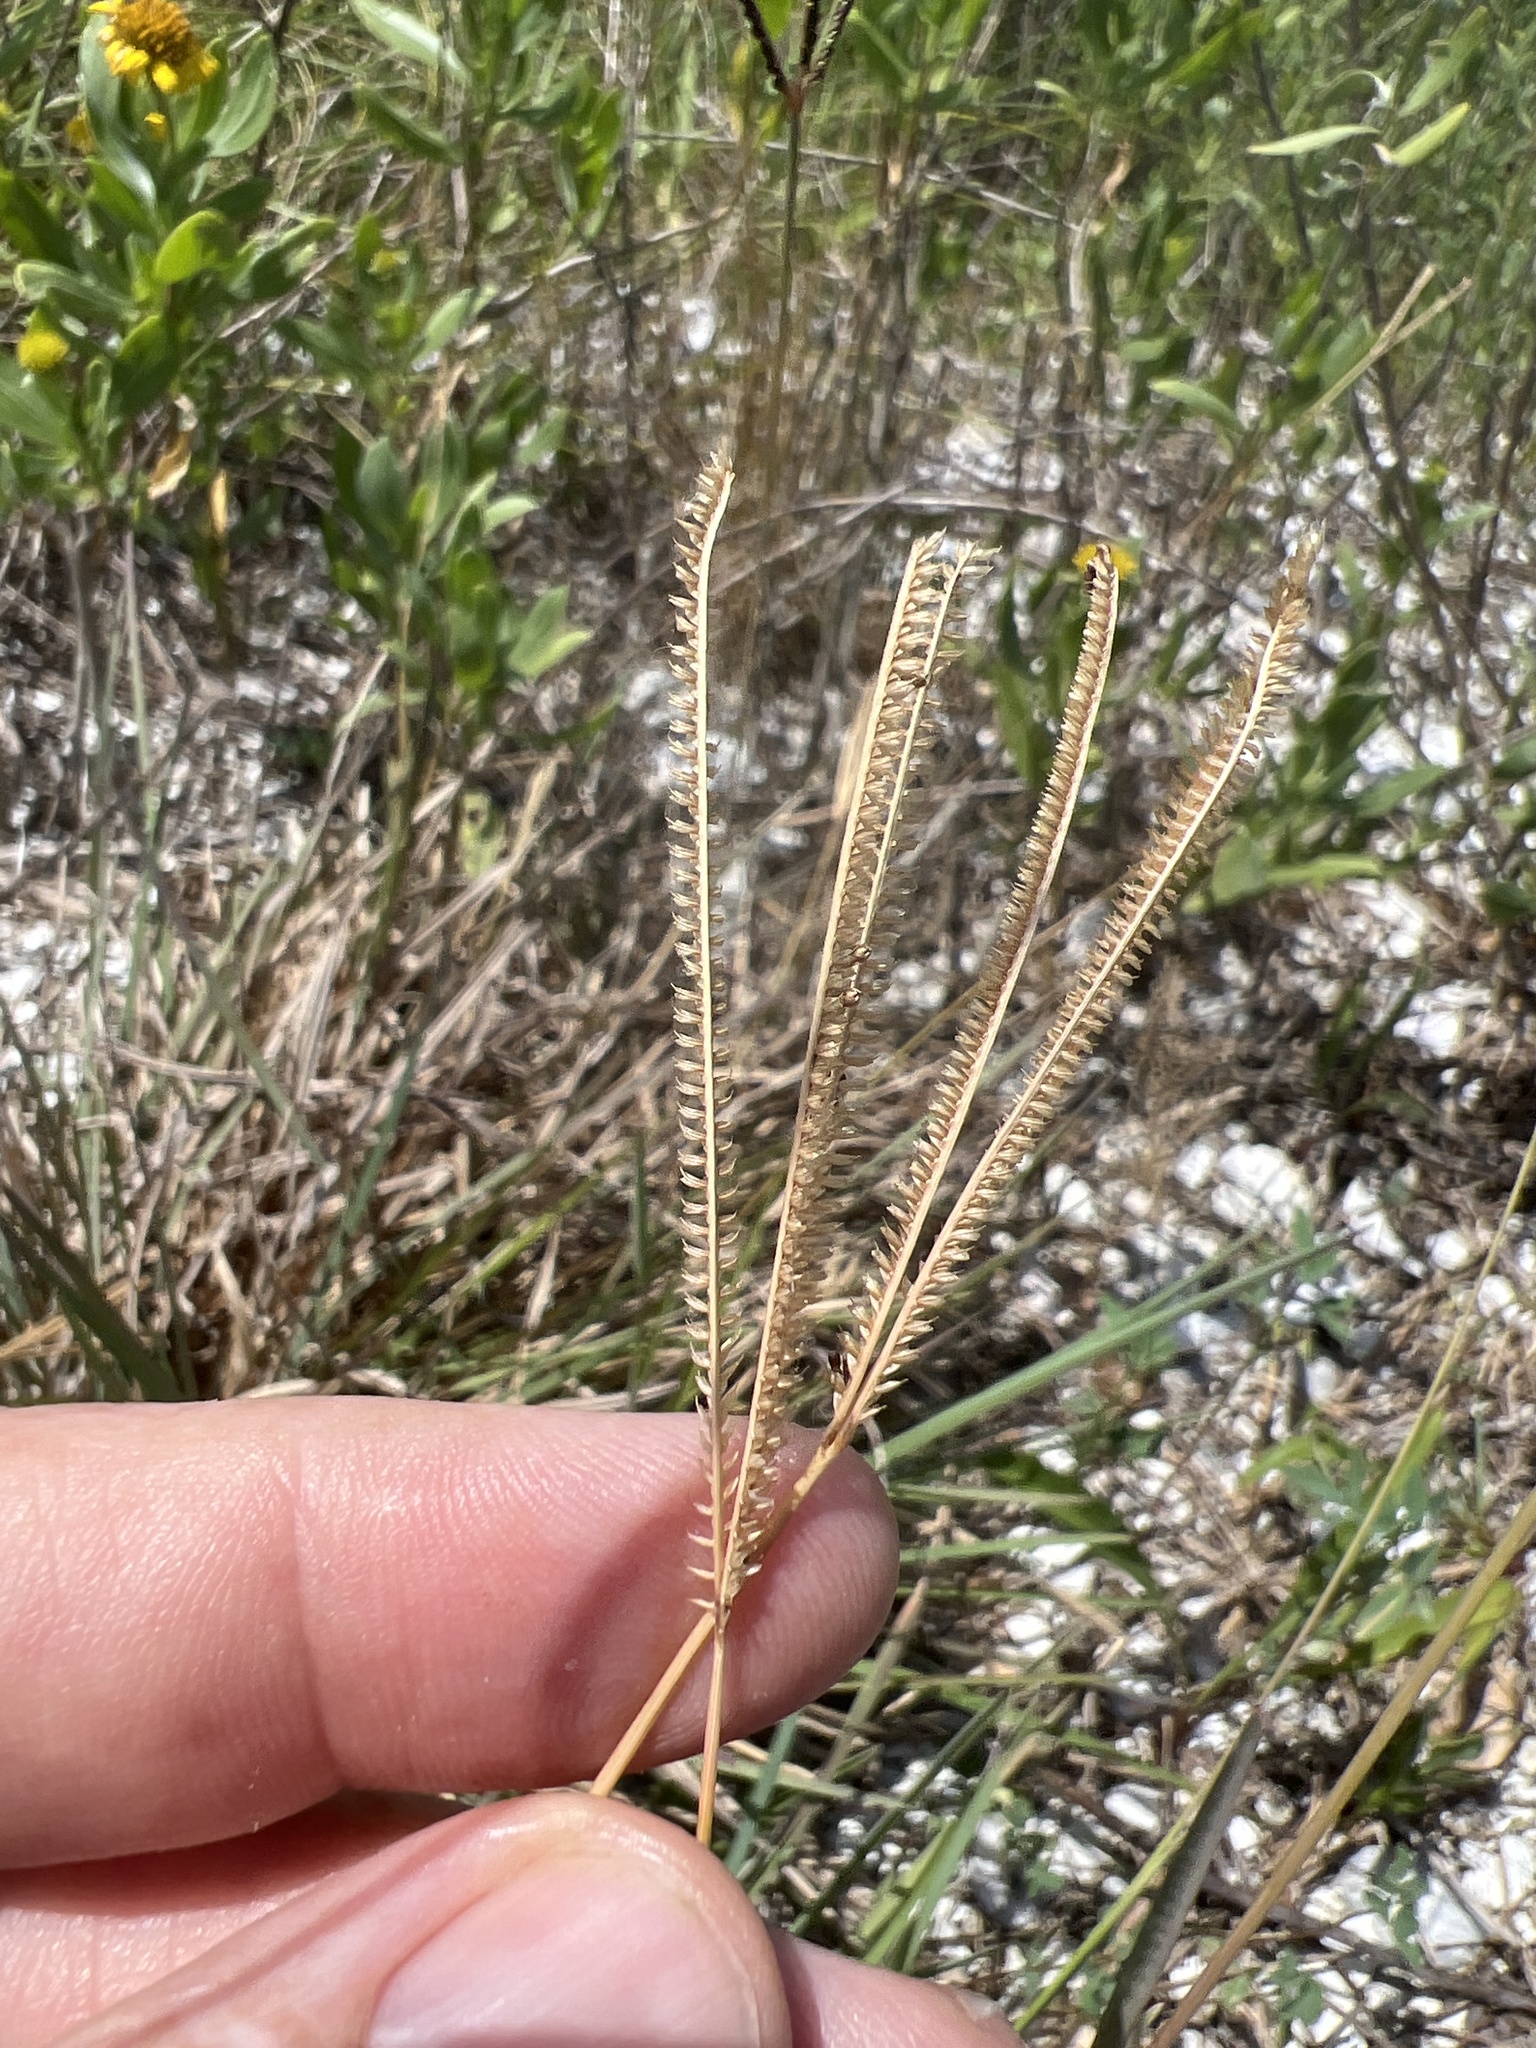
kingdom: Plantae
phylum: Tracheophyta
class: Liliopsida
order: Poales
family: Poaceae
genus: Eustachys
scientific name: Eustachys petraea
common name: Pinewoods fingergrass
